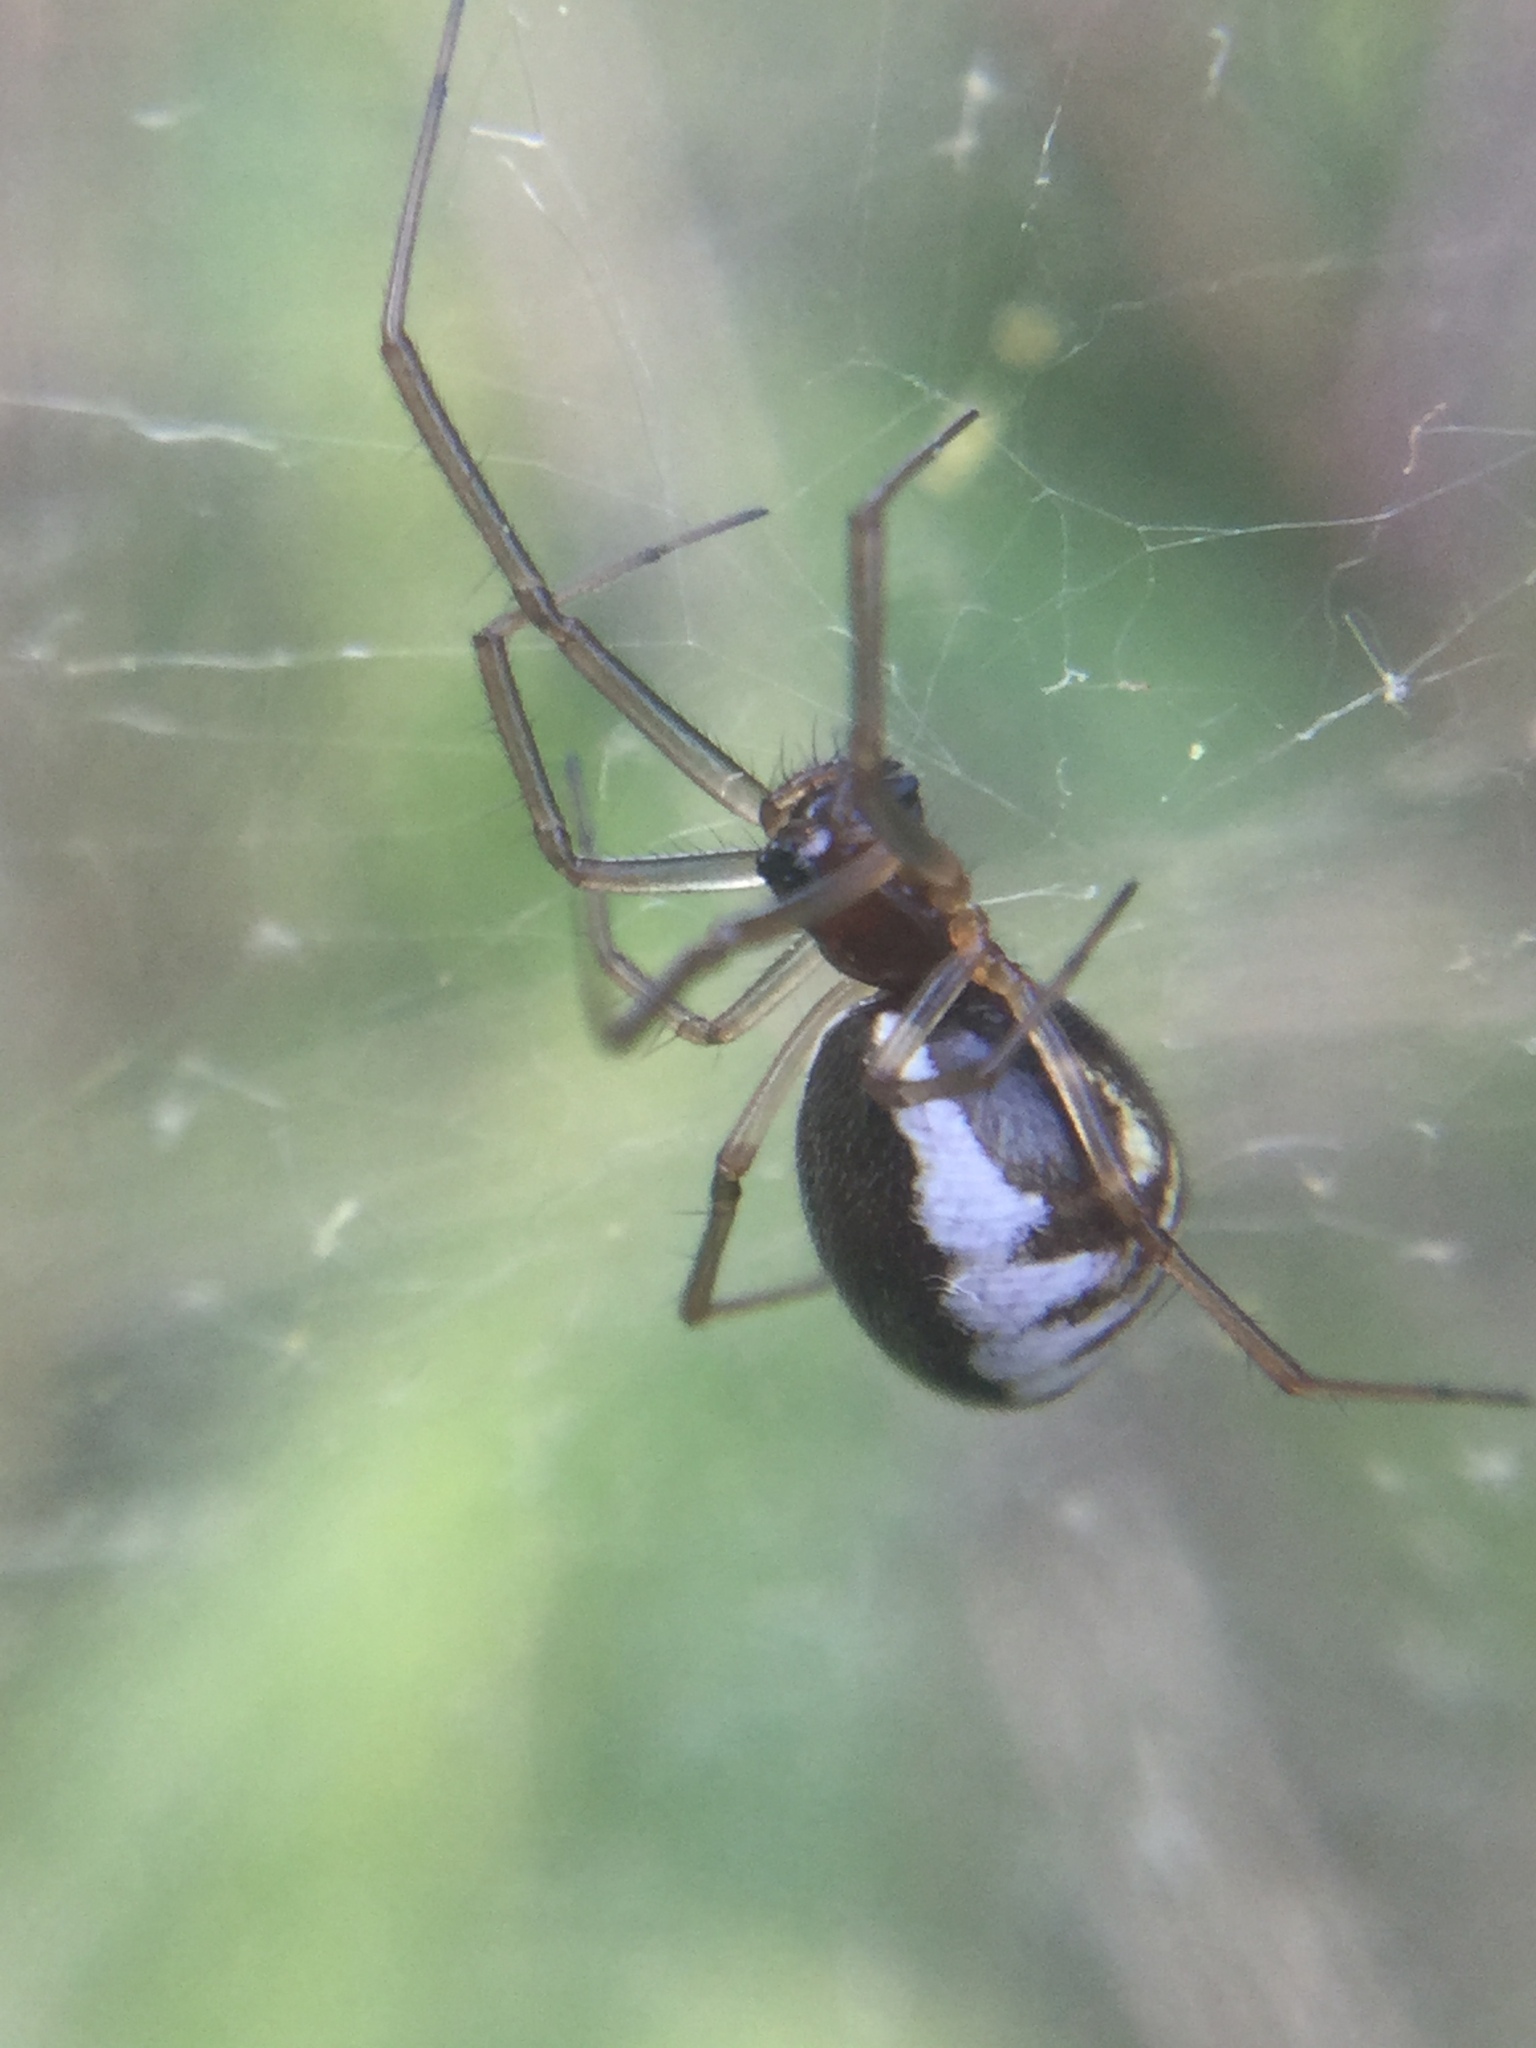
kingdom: Animalia
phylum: Arthropoda
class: Arachnida
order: Araneae
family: Linyphiidae
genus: Frontinella
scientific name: Frontinella pyramitela
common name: Bowl-and-doily spider
